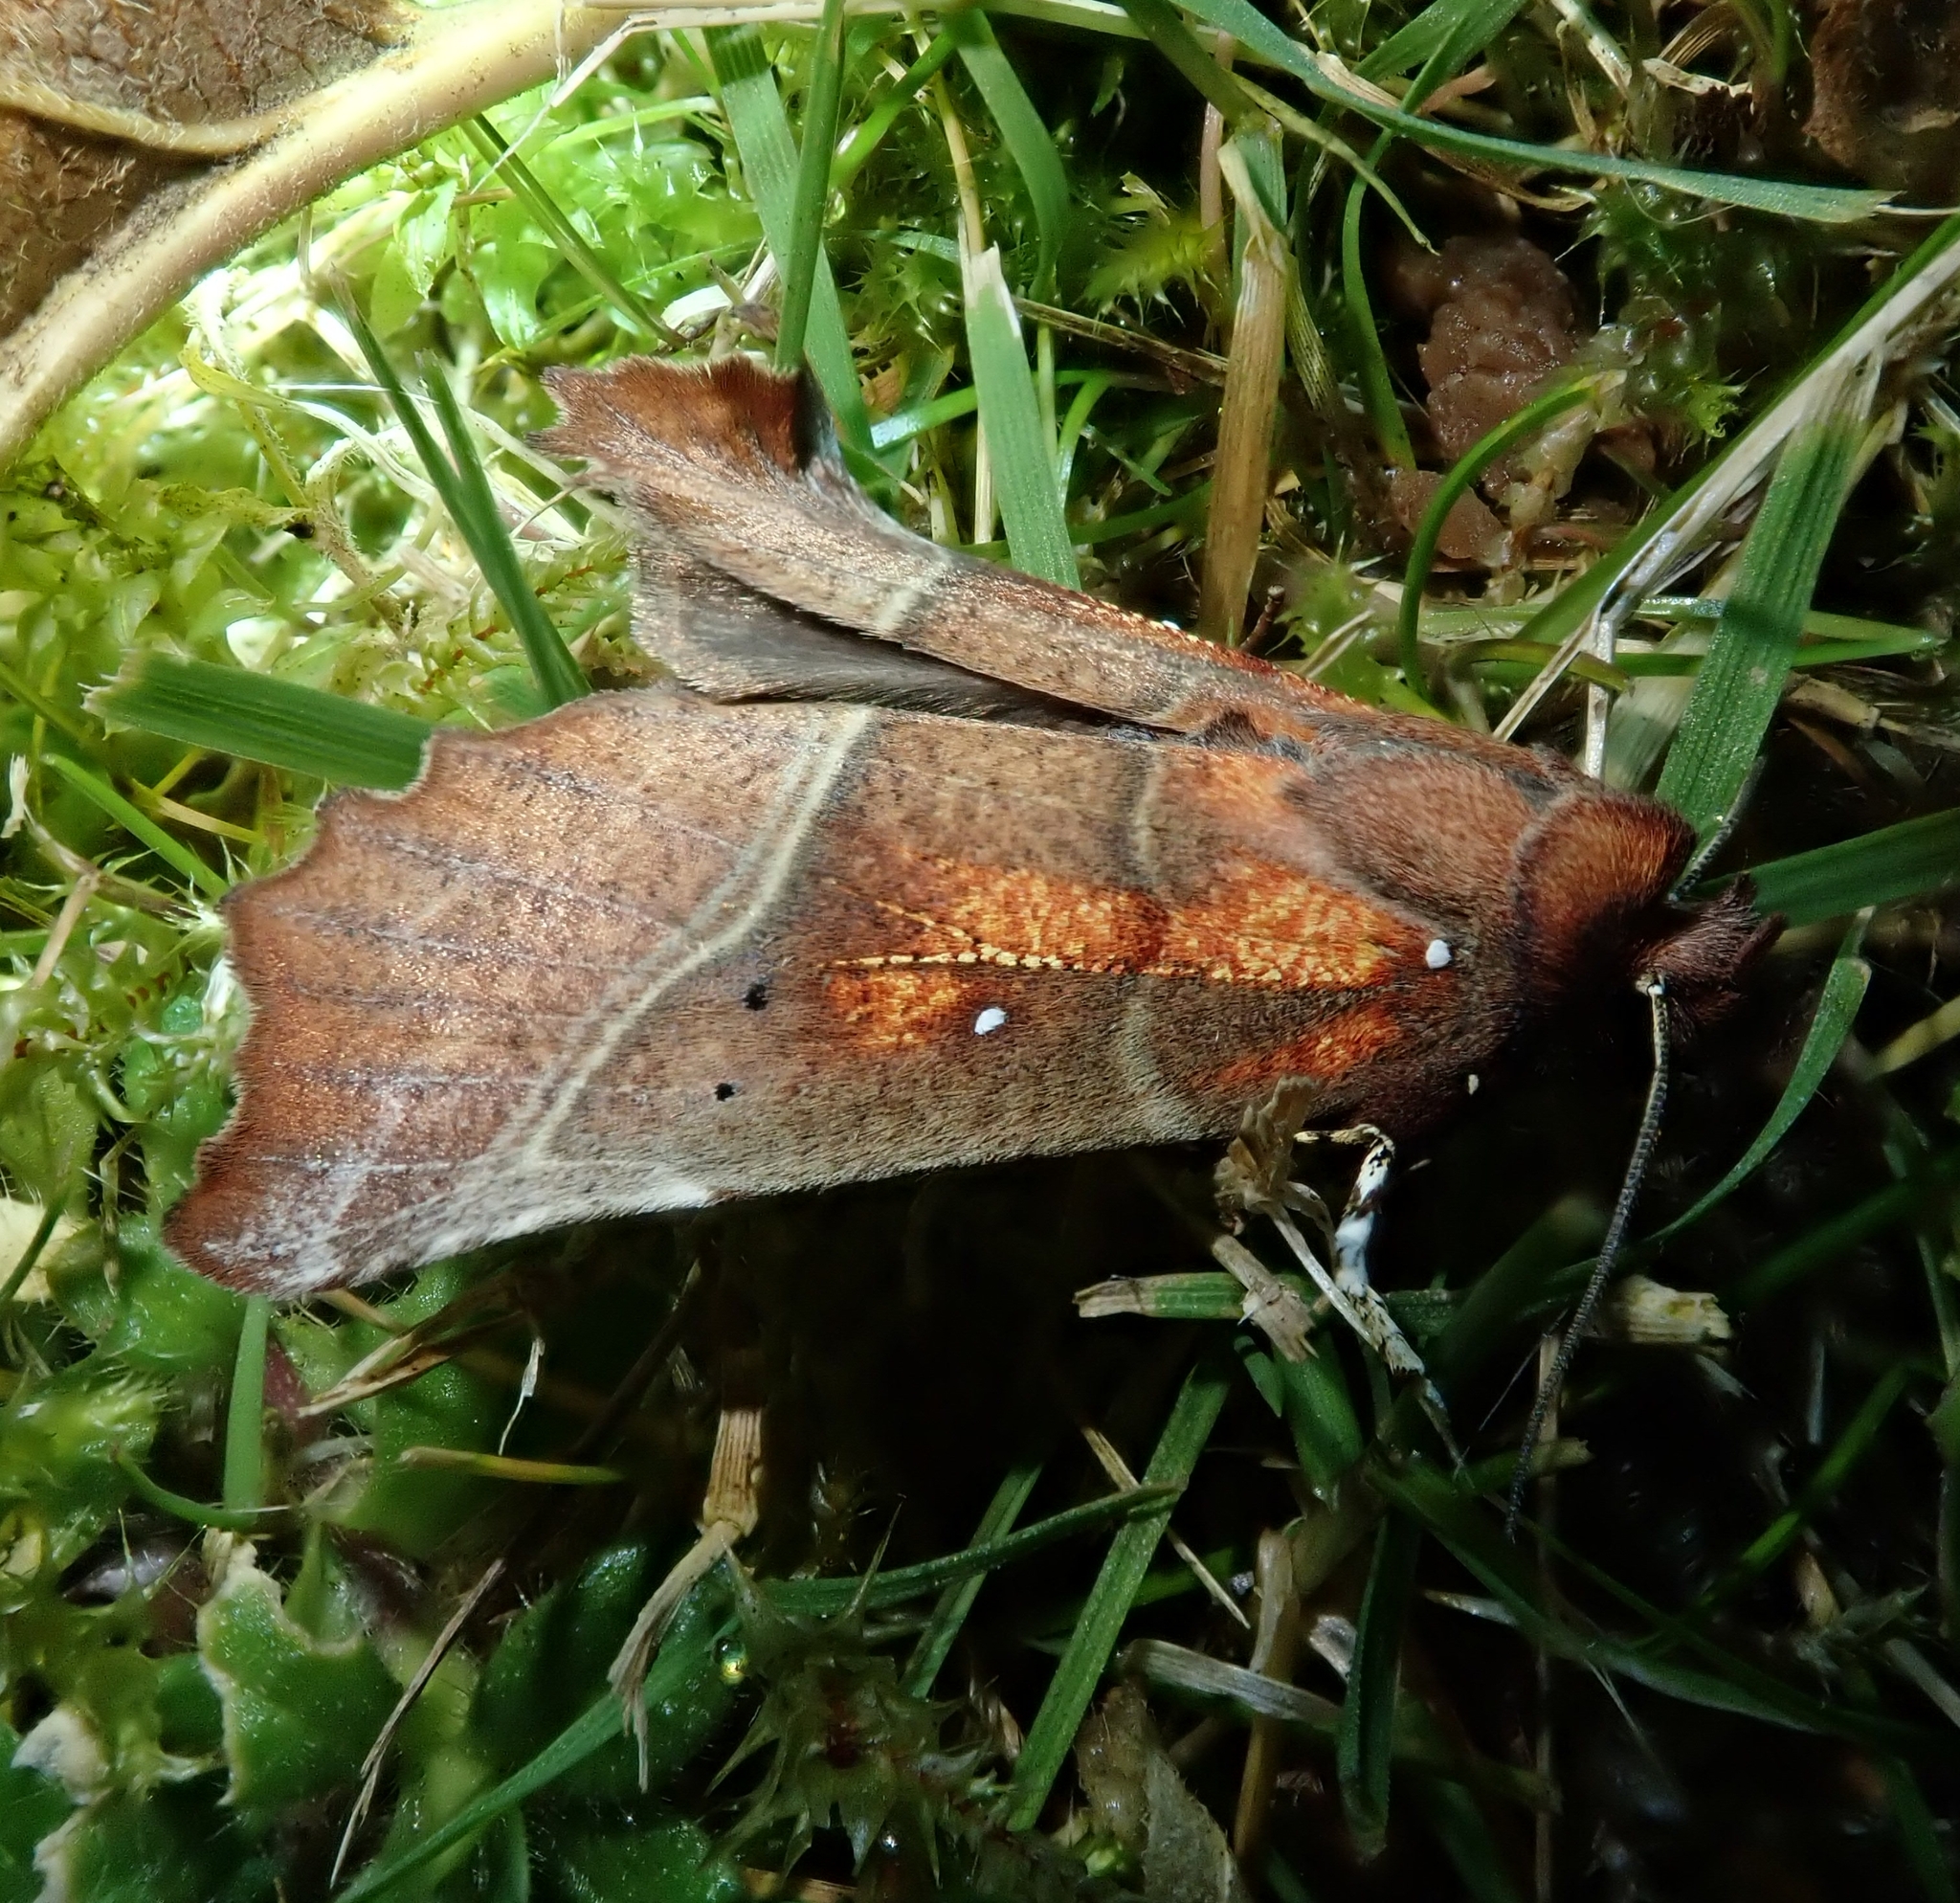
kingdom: Animalia
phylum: Arthropoda
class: Insecta
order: Lepidoptera
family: Erebidae
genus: Scoliopteryx
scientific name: Scoliopteryx libatrix
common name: Herald
